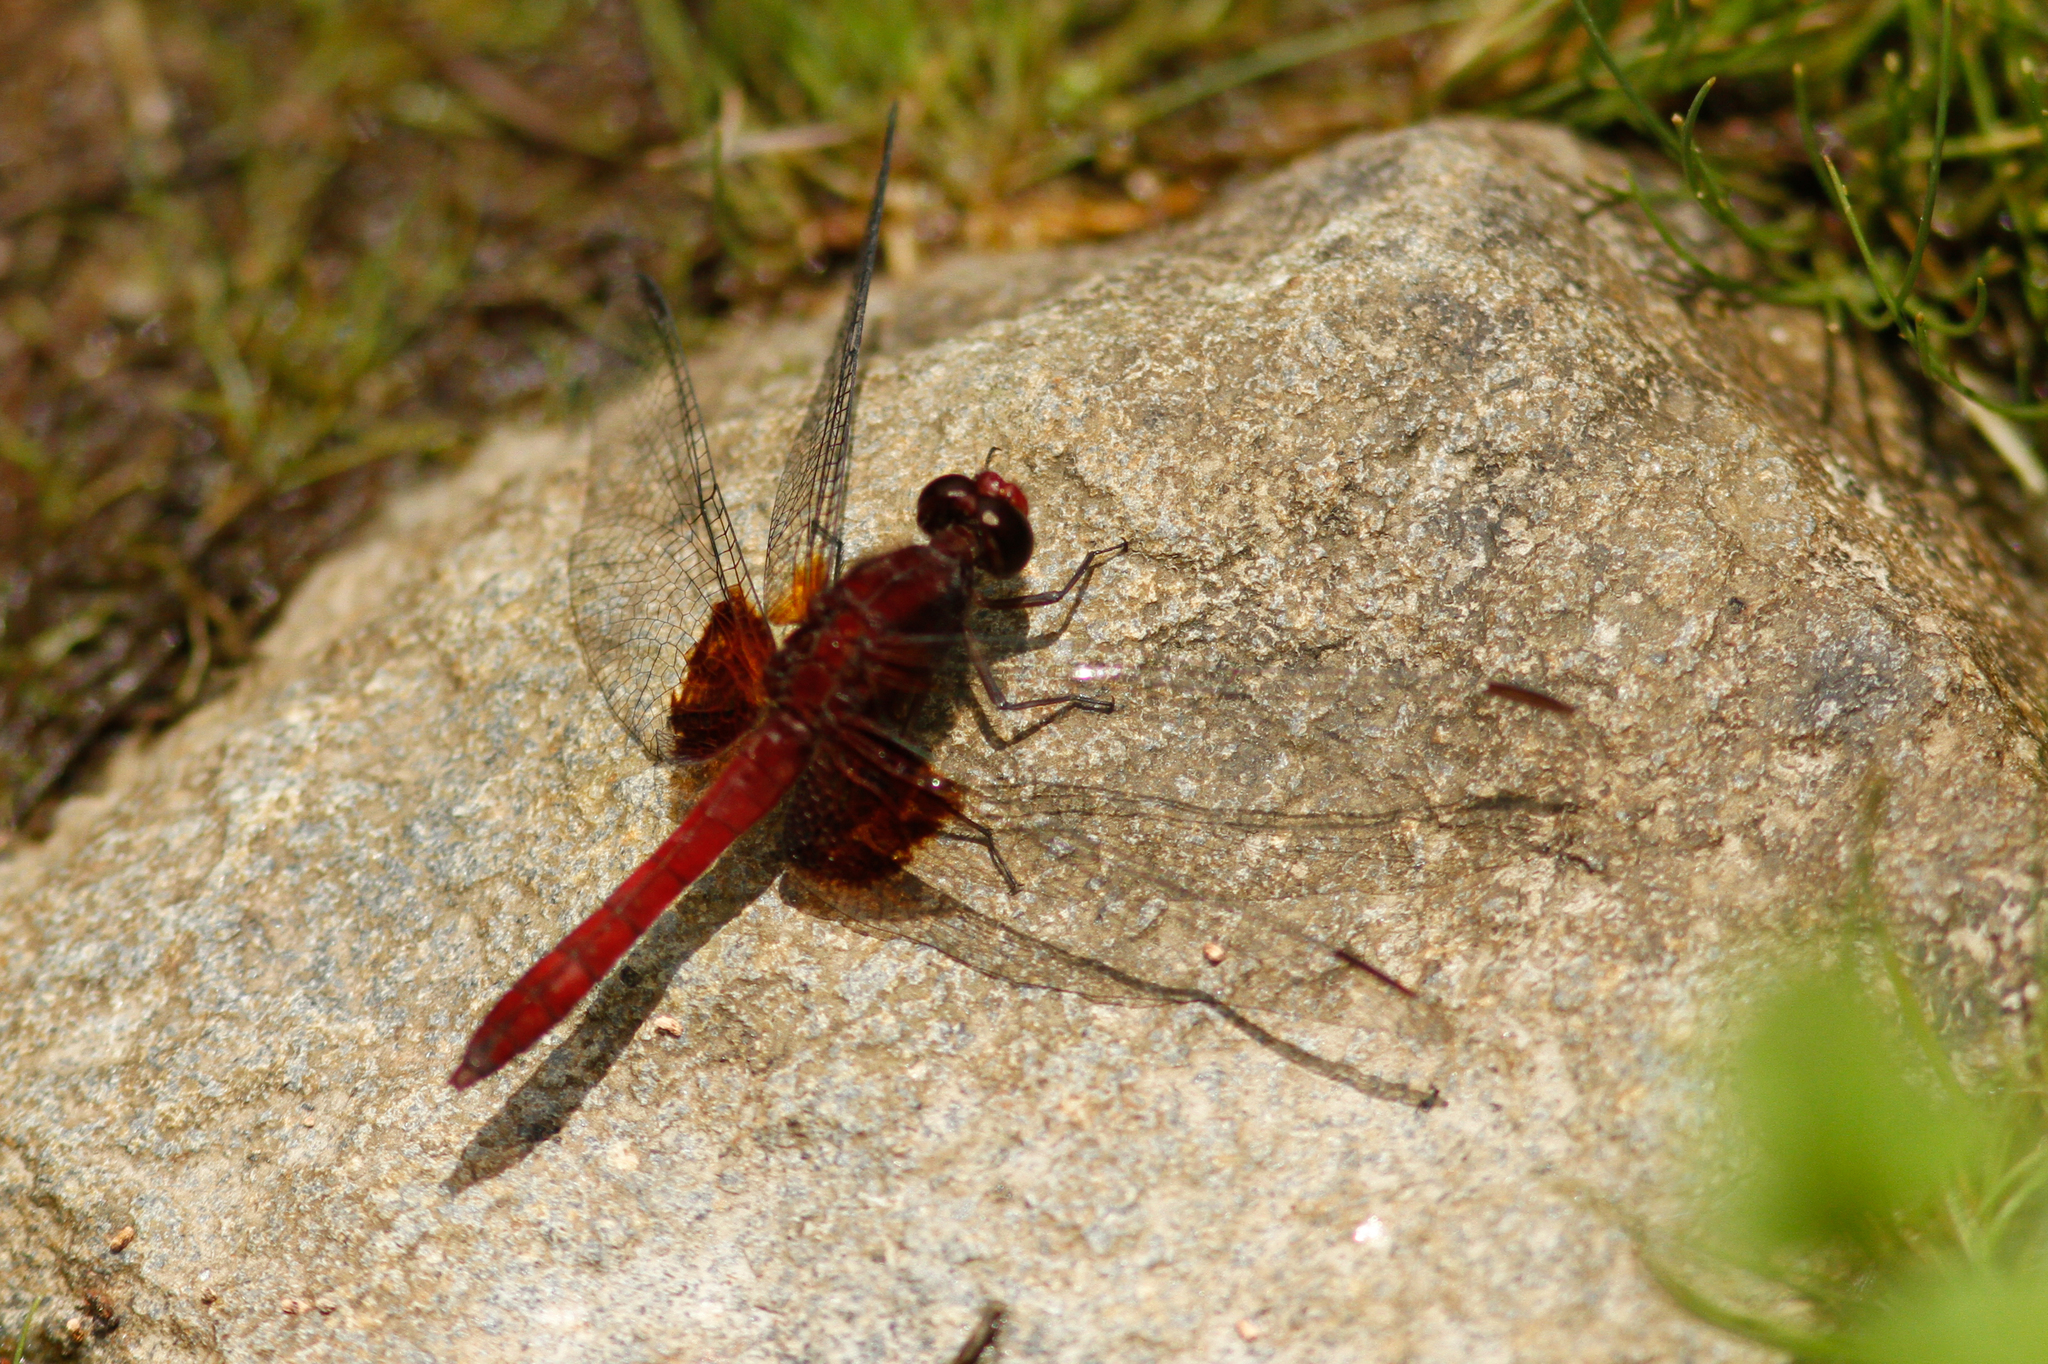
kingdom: Animalia
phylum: Arthropoda
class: Insecta
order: Odonata
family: Libellulidae
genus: Erythrodiplax
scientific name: Erythrodiplax ines
